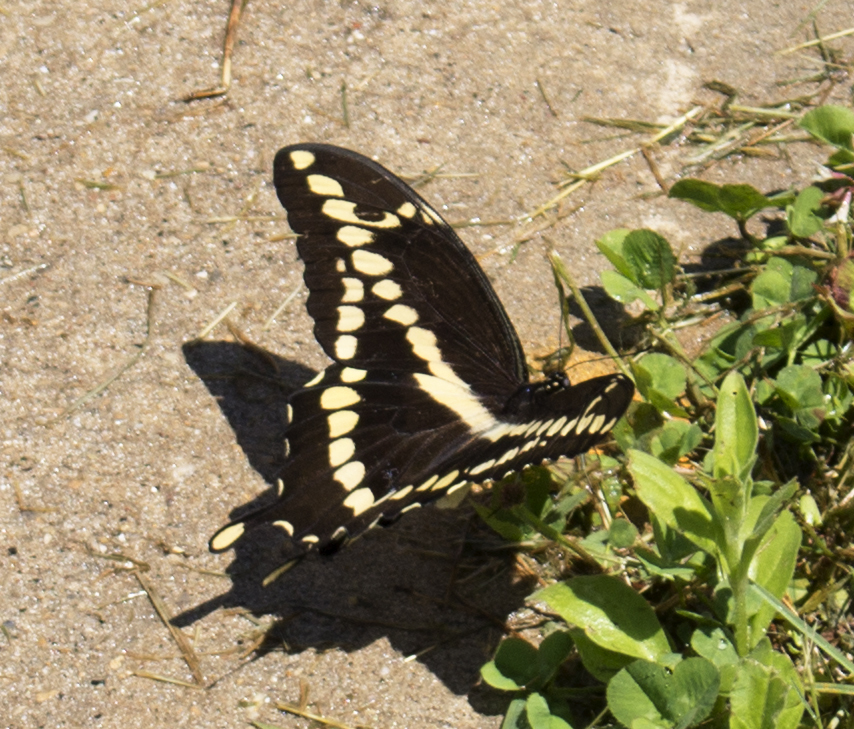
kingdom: Animalia
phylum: Arthropoda
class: Insecta
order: Lepidoptera
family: Papilionidae
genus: Papilio
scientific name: Papilio cresphontes
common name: Giant swallowtail
